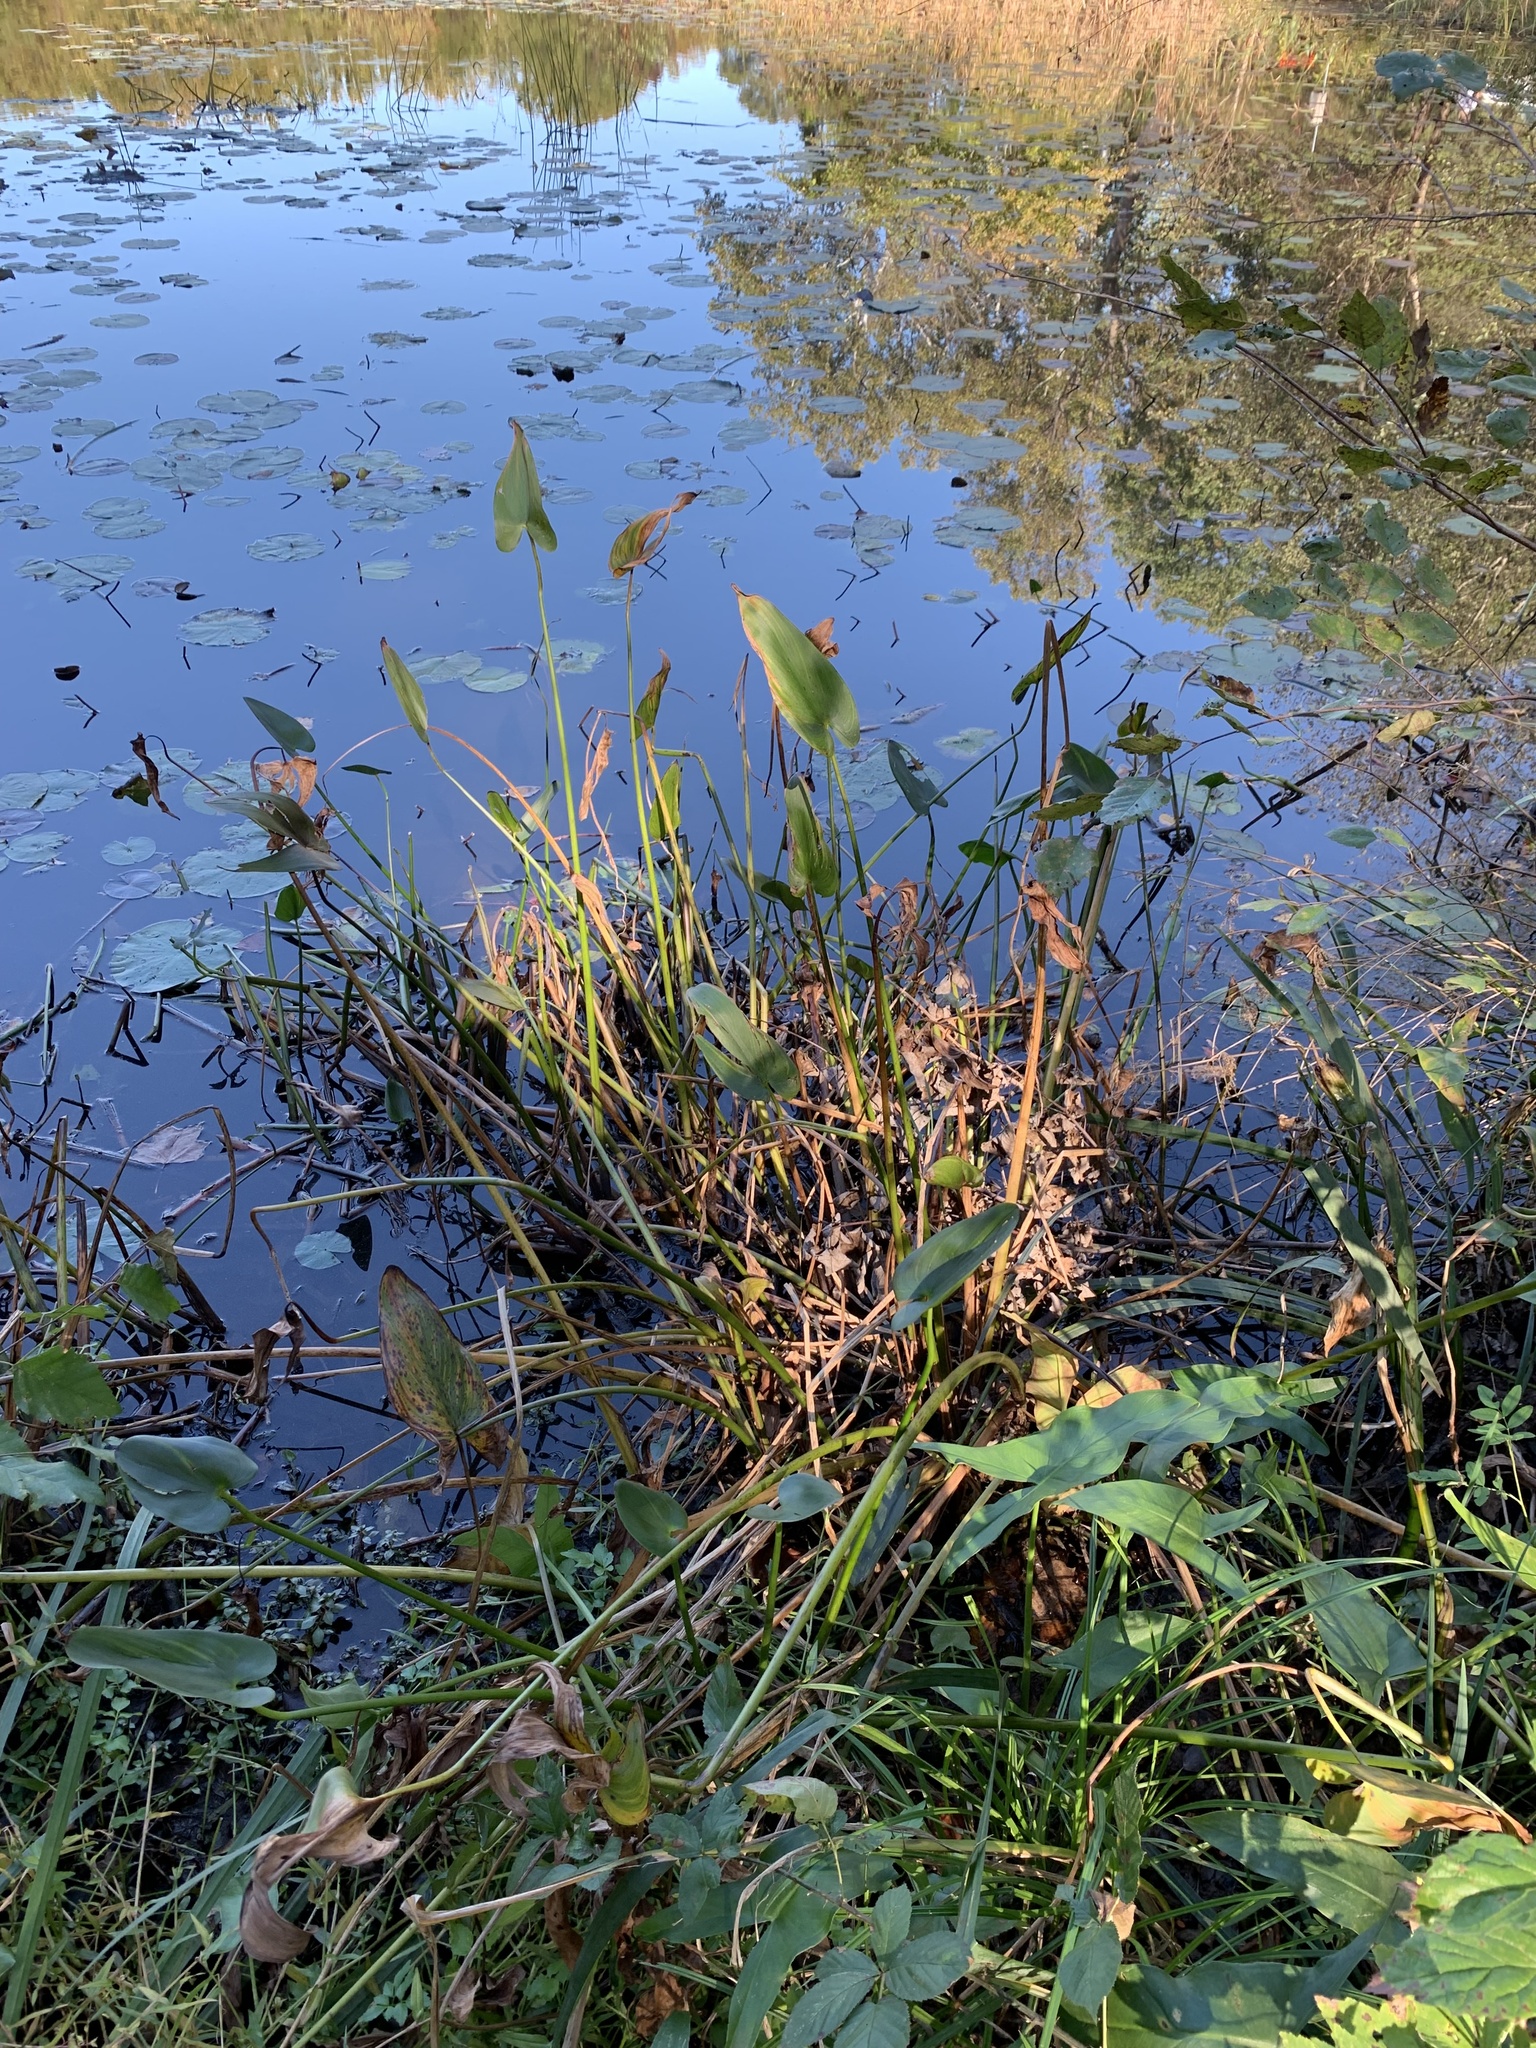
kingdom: Plantae
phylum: Tracheophyta
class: Liliopsida
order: Commelinales
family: Pontederiaceae
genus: Pontederia
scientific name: Pontederia cordata
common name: Pickerelweed
